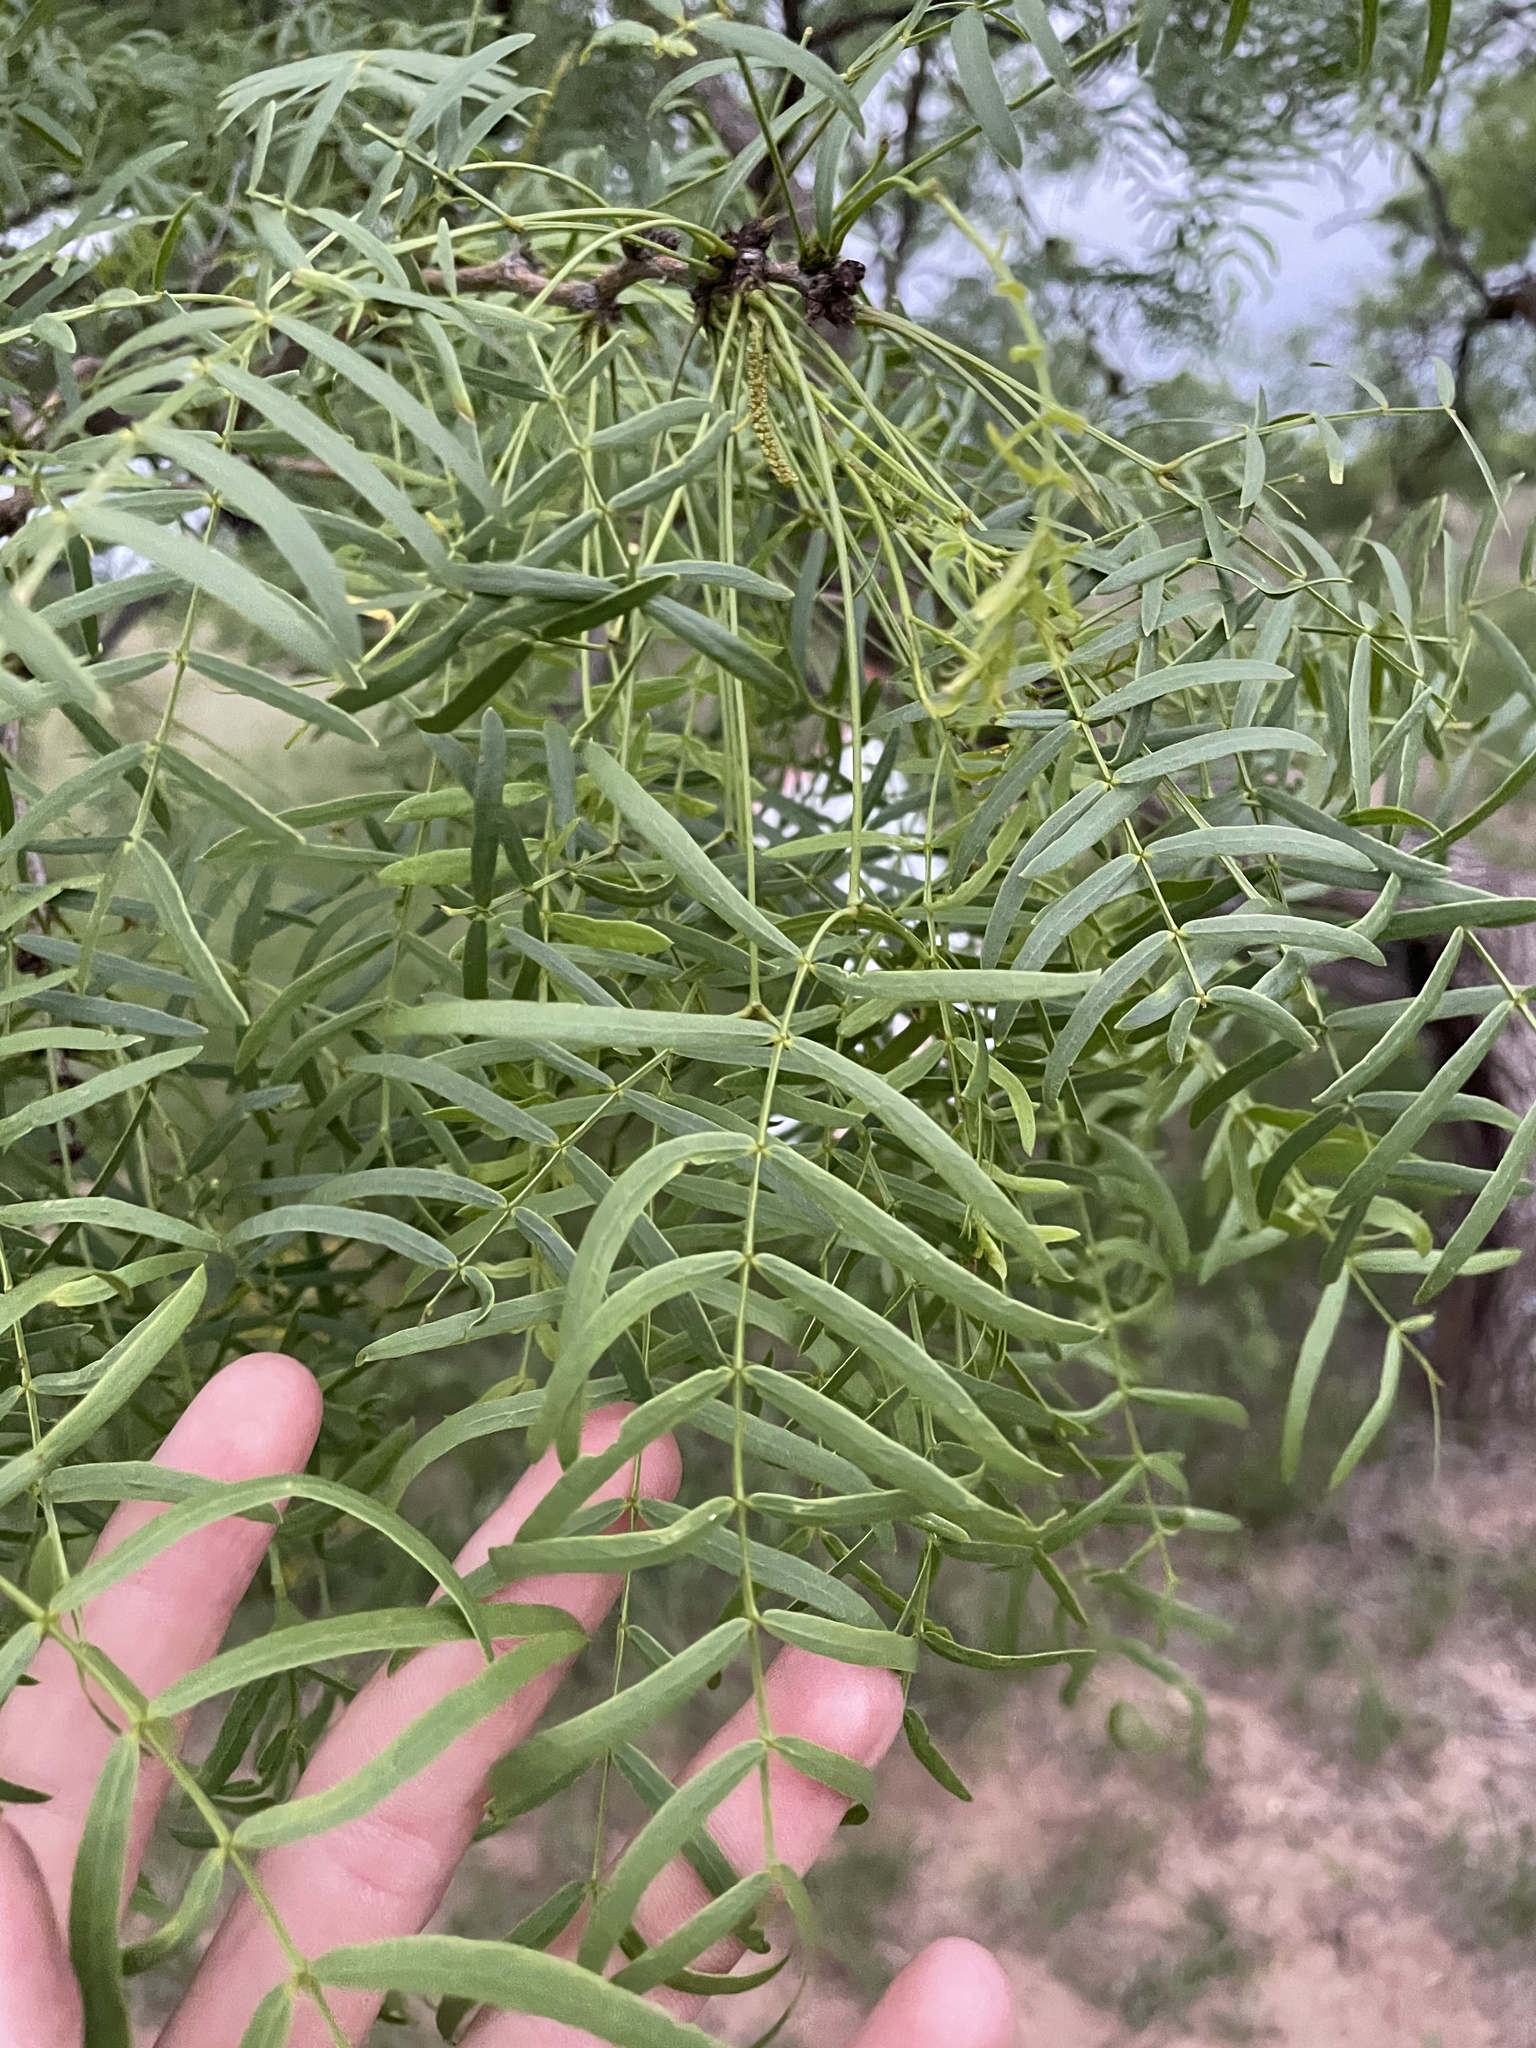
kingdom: Plantae
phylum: Tracheophyta
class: Magnoliopsida
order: Fabales
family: Fabaceae
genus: Prosopis
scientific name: Prosopis glandulosa
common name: Honey mesquite
